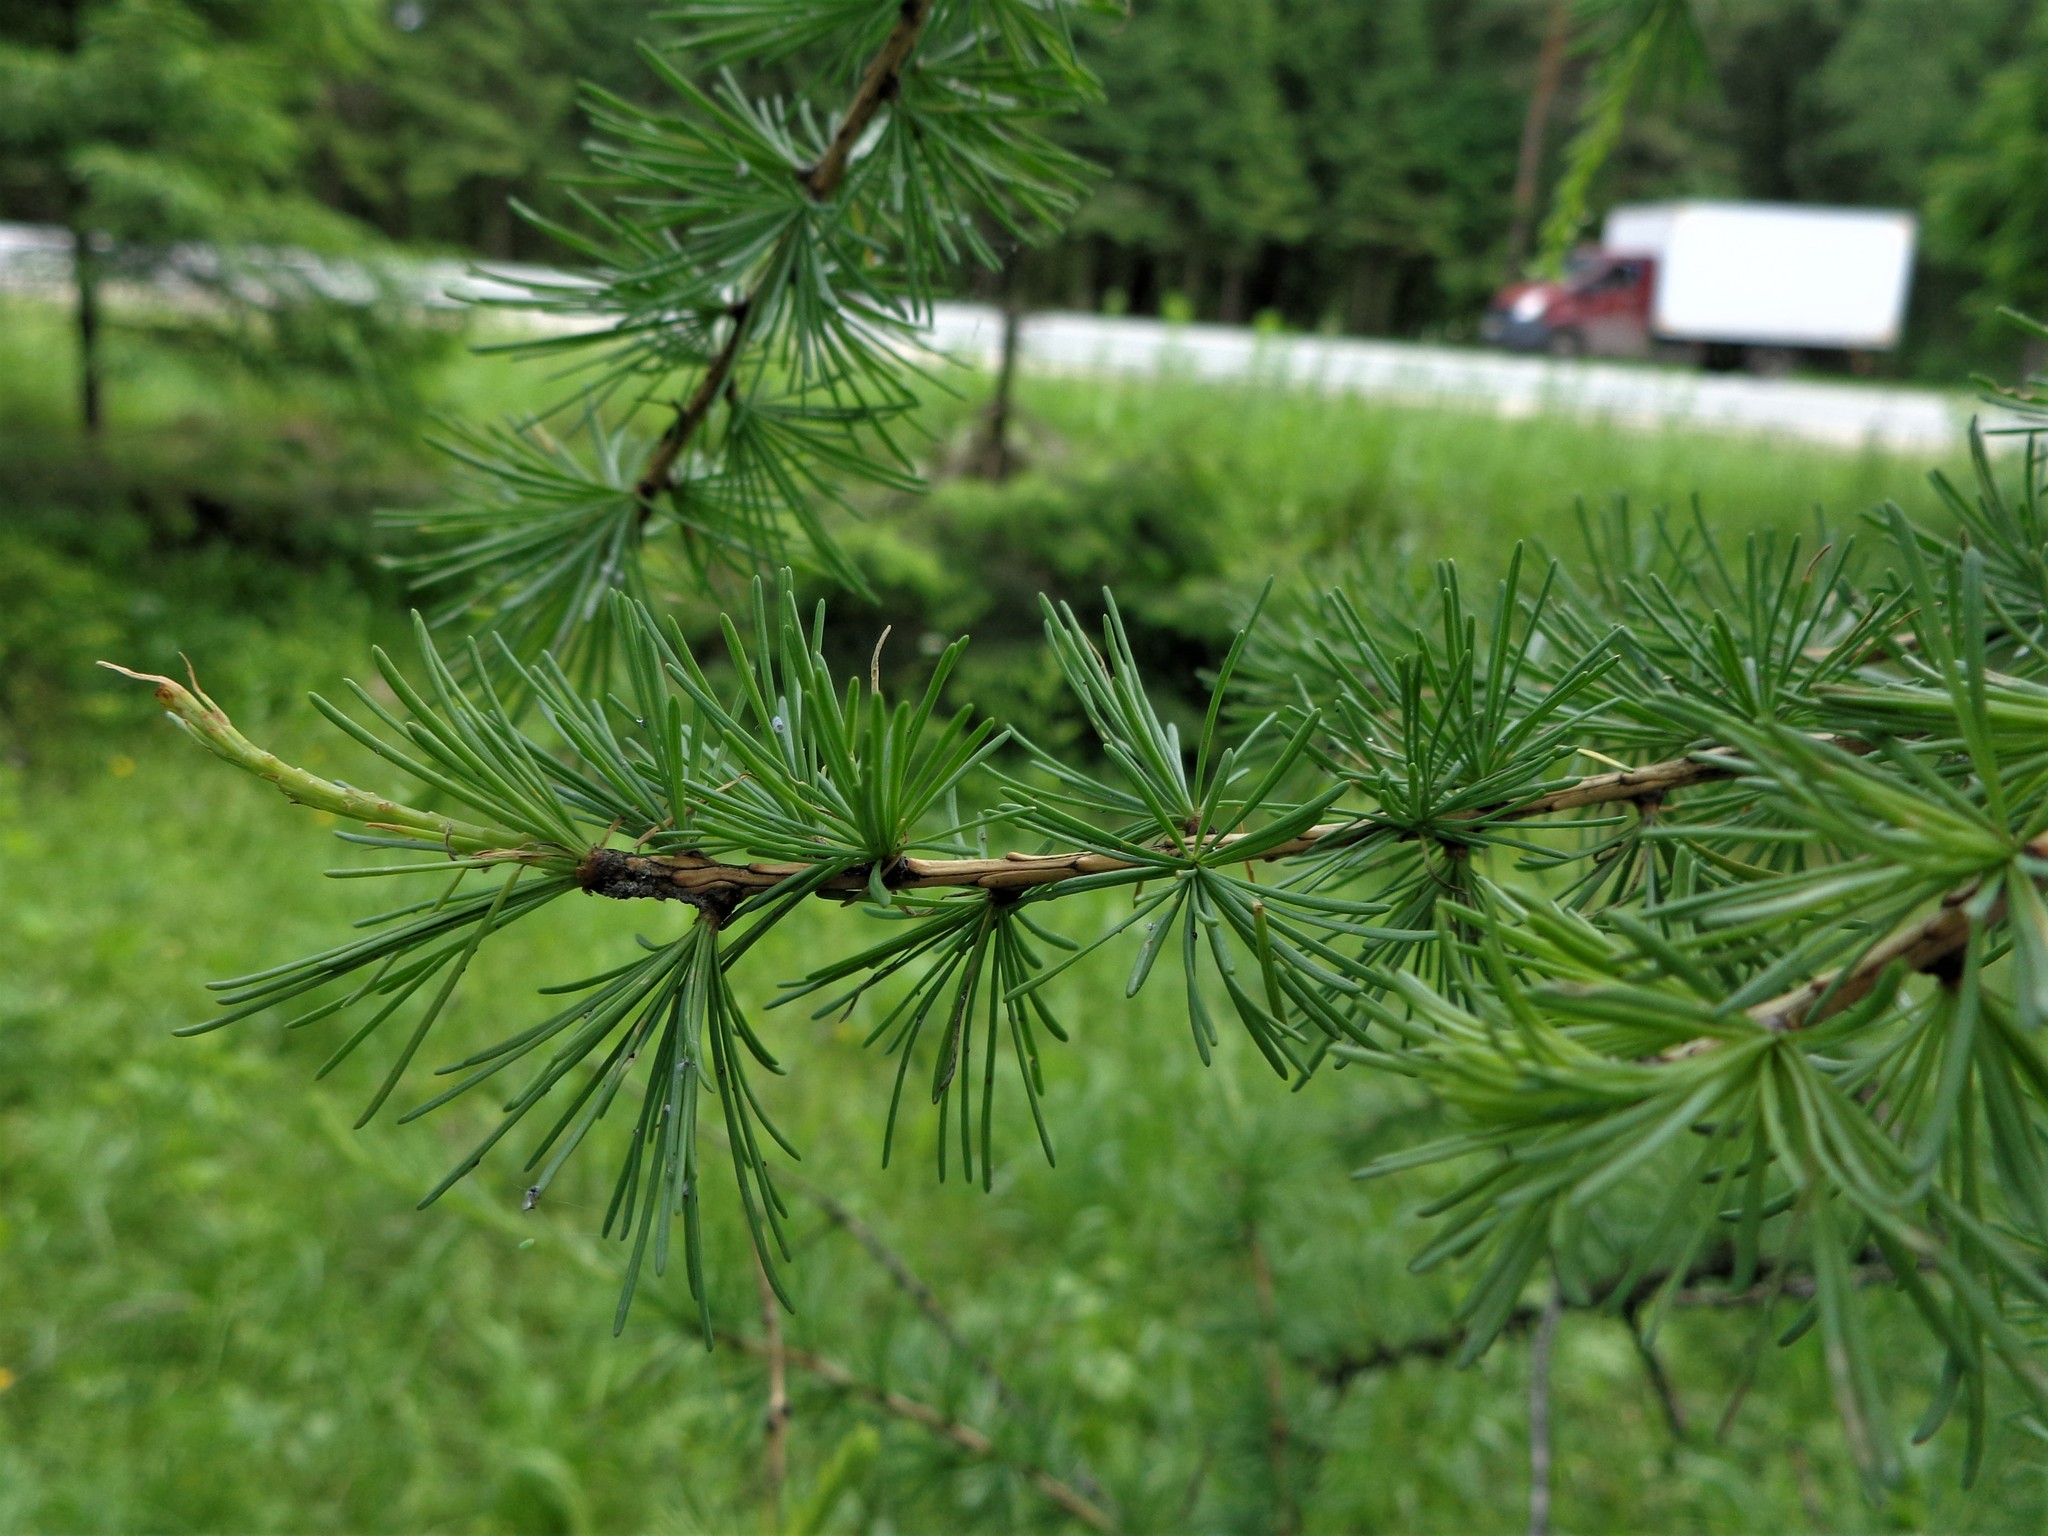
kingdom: Plantae
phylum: Tracheophyta
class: Pinopsida
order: Pinales
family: Pinaceae
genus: Larix
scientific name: Larix decidua
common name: European larch
